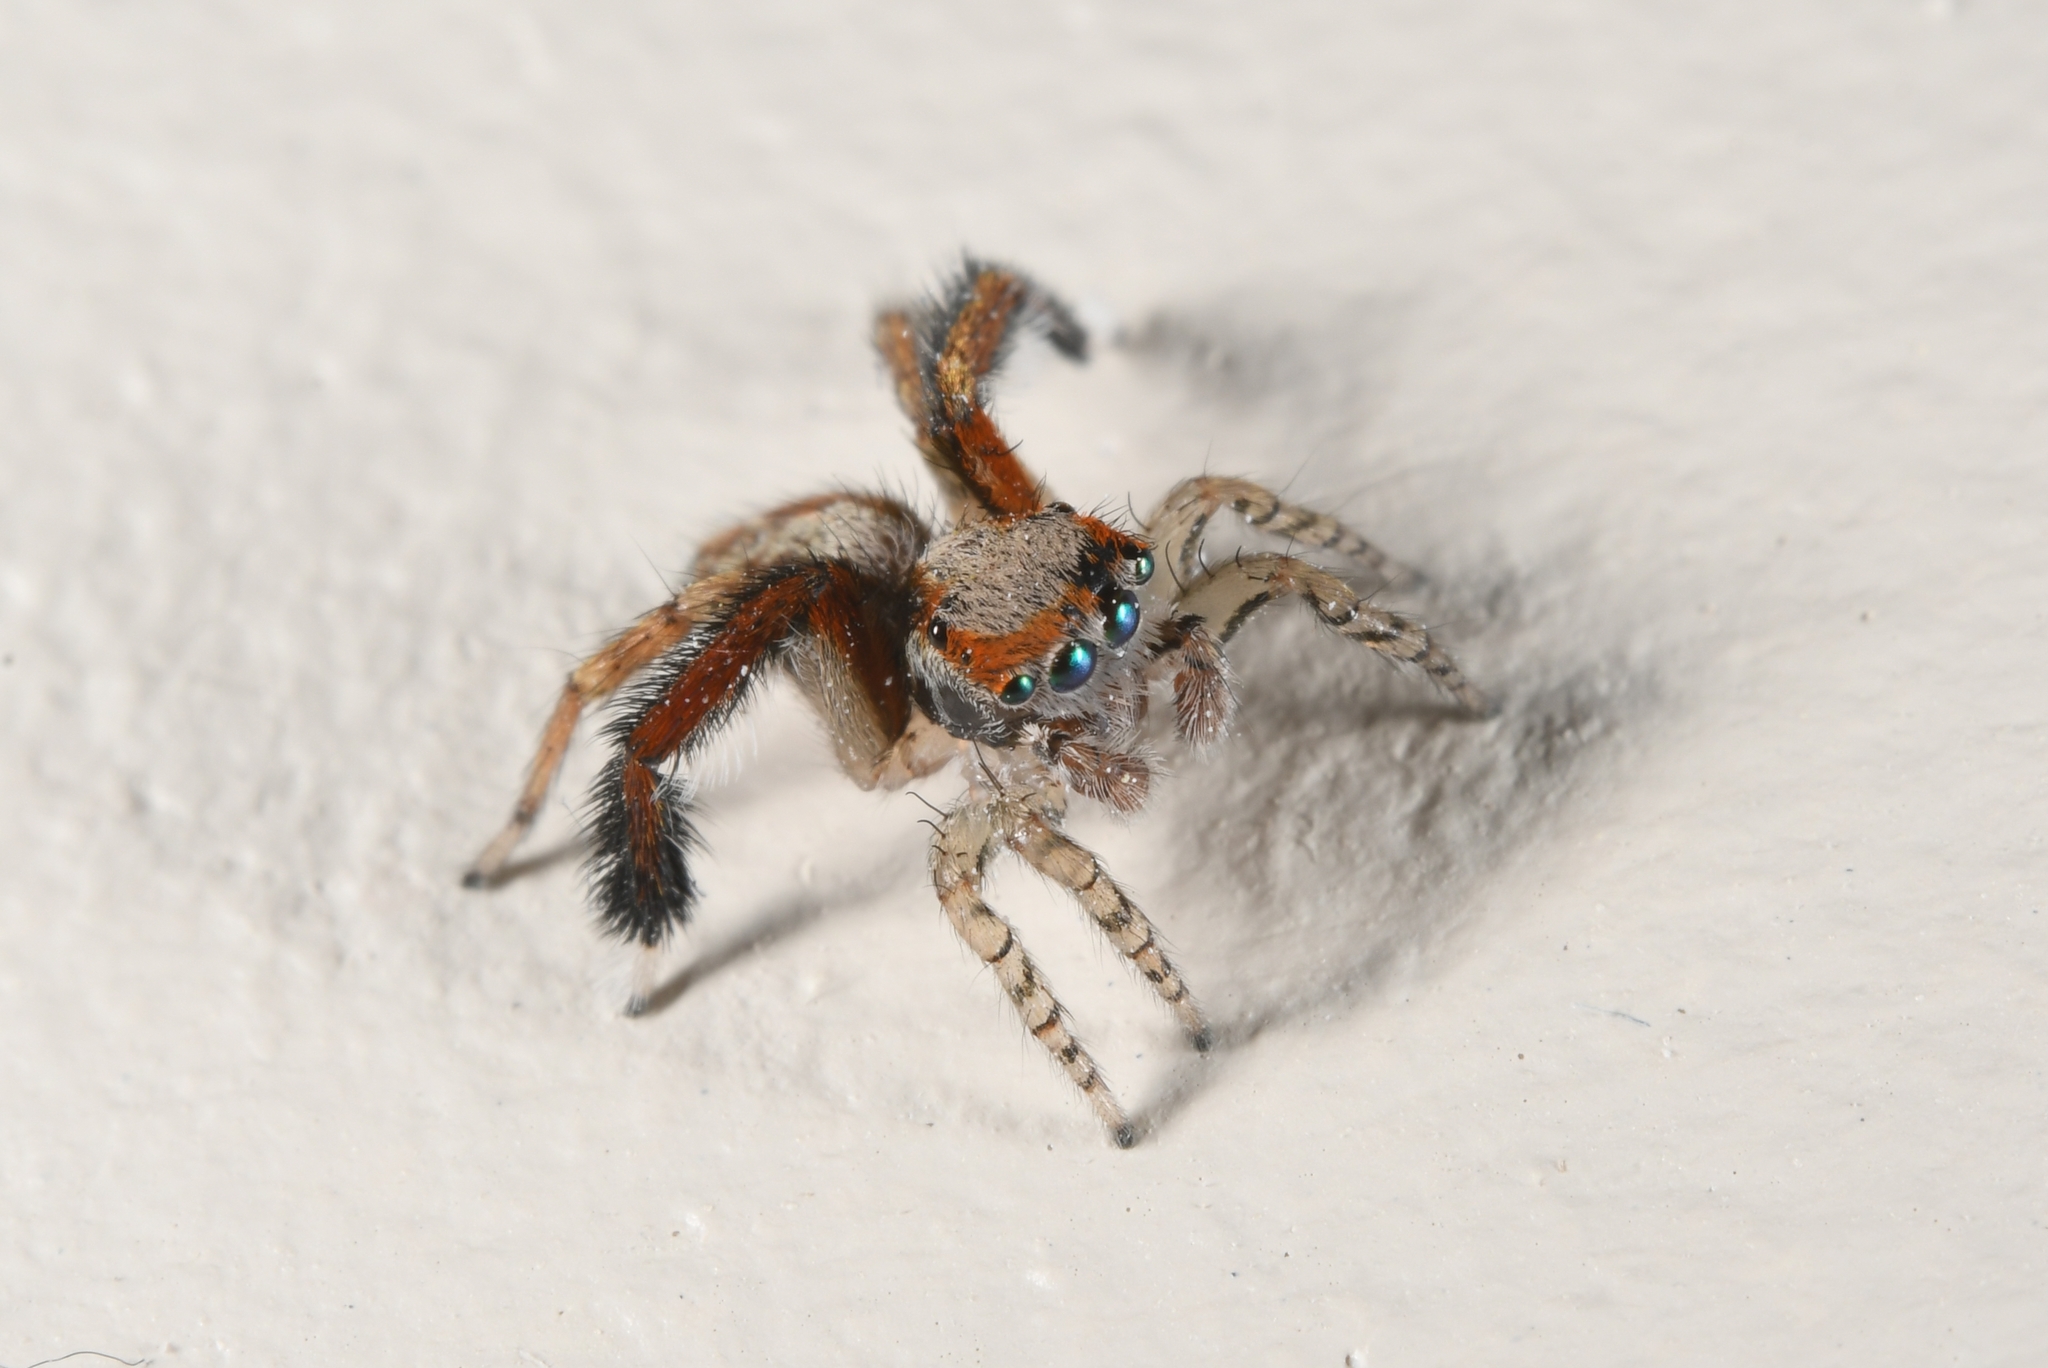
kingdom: Animalia
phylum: Arthropoda
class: Arachnida
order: Araneae
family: Salticidae
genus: Saitis
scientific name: Saitis barbipes
